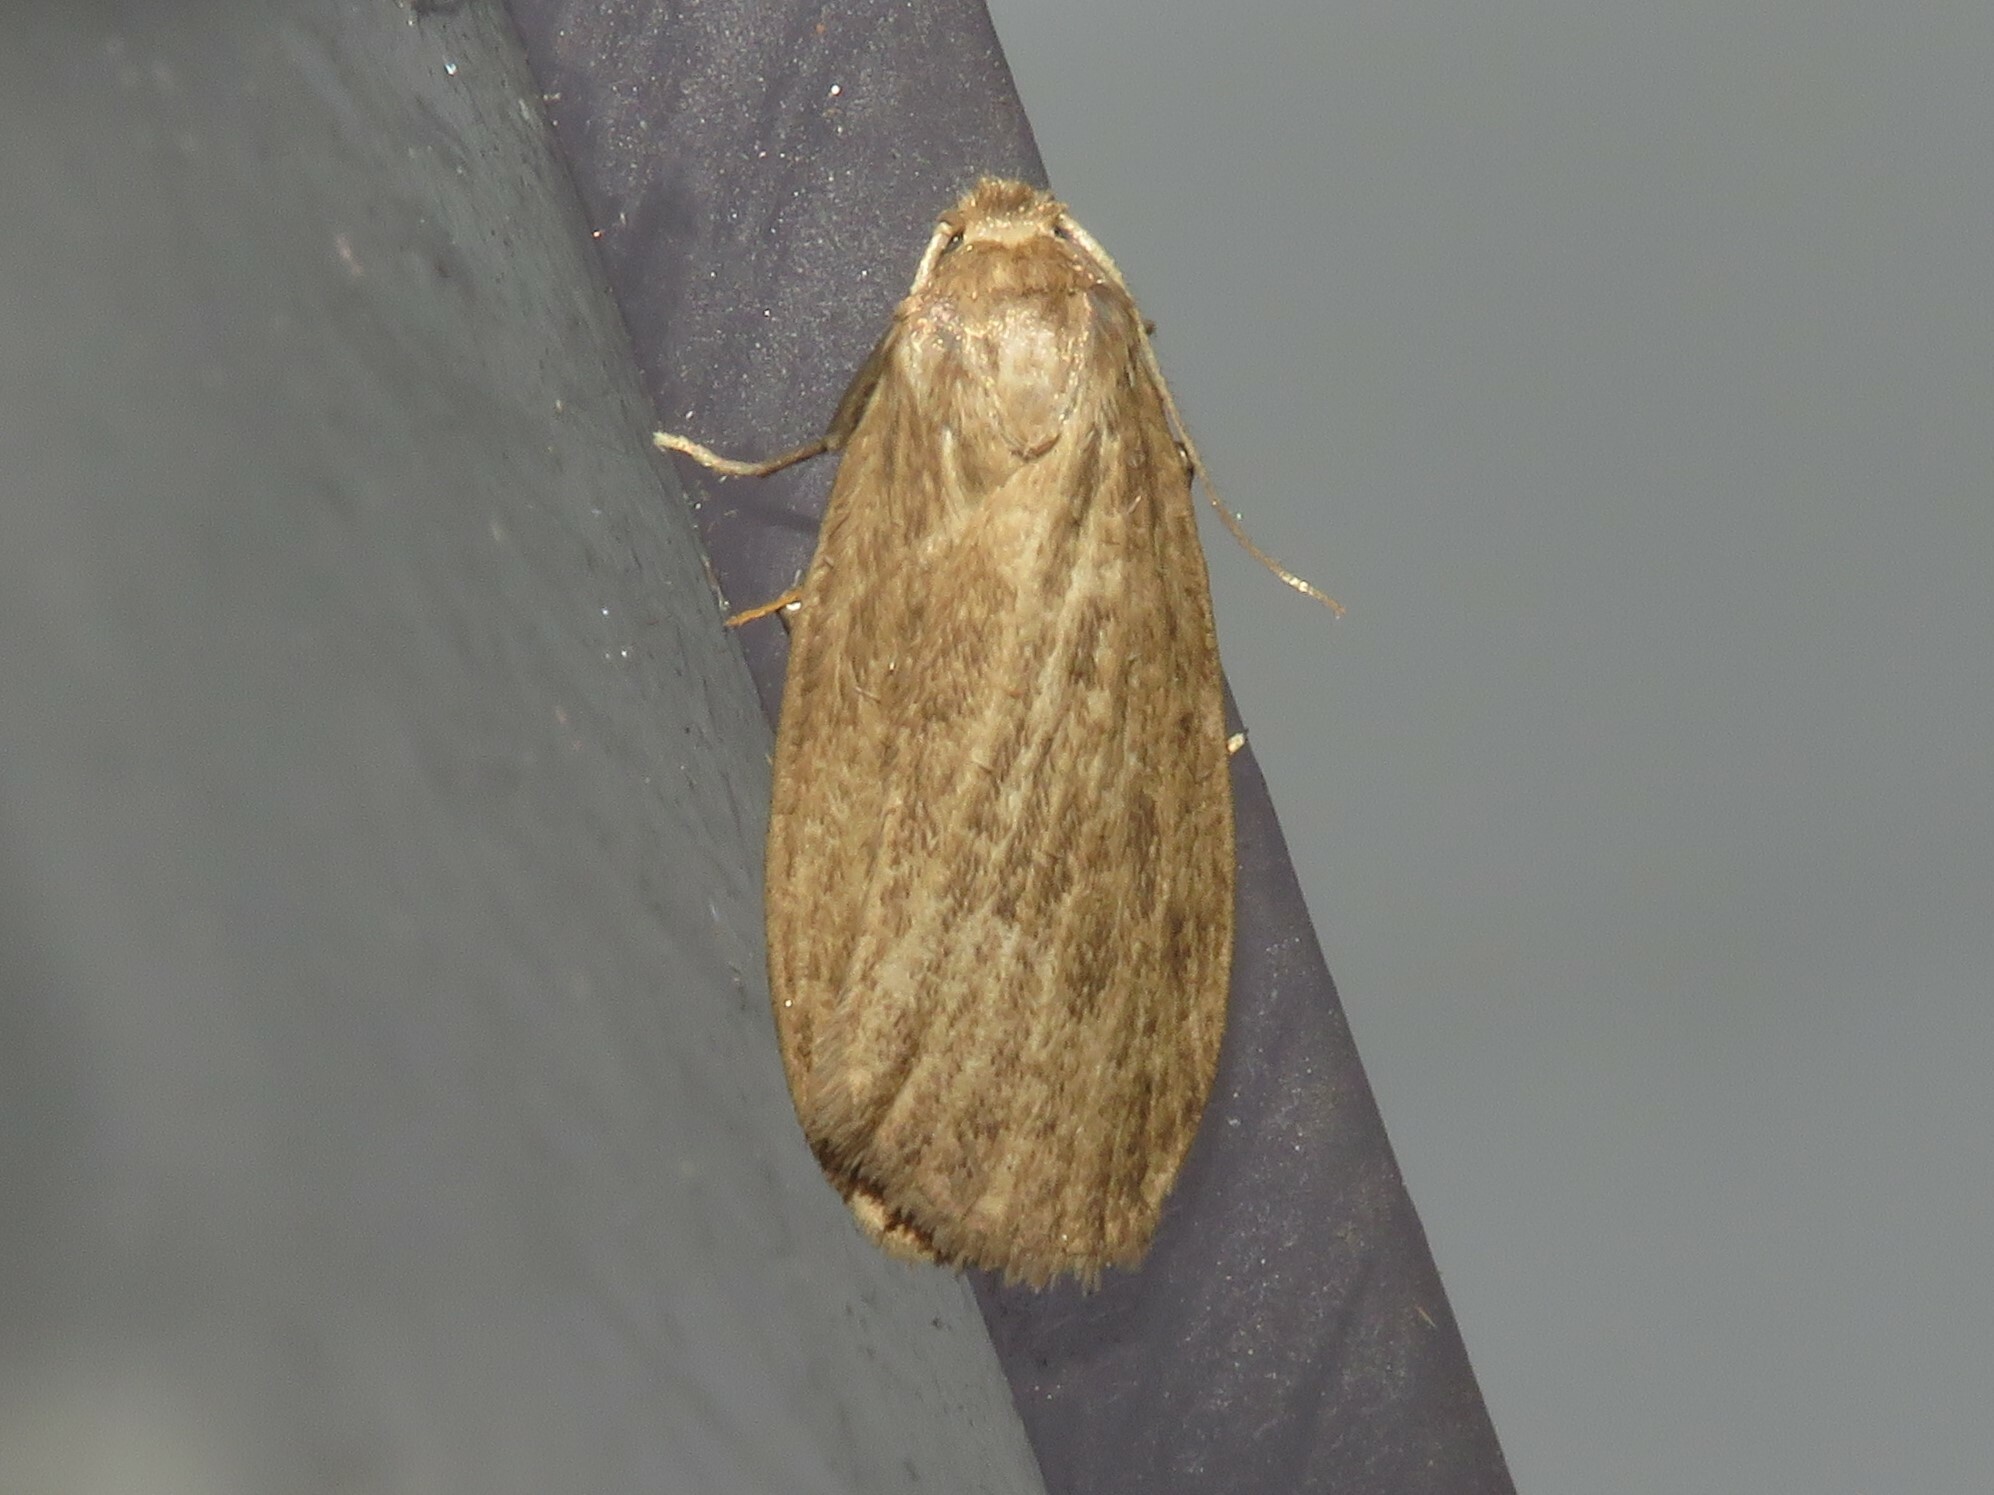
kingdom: Animalia
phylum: Arthropoda
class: Insecta
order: Lepidoptera
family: Erebidae
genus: Crambidia
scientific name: Crambidia pallida
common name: Pale lichen moth
